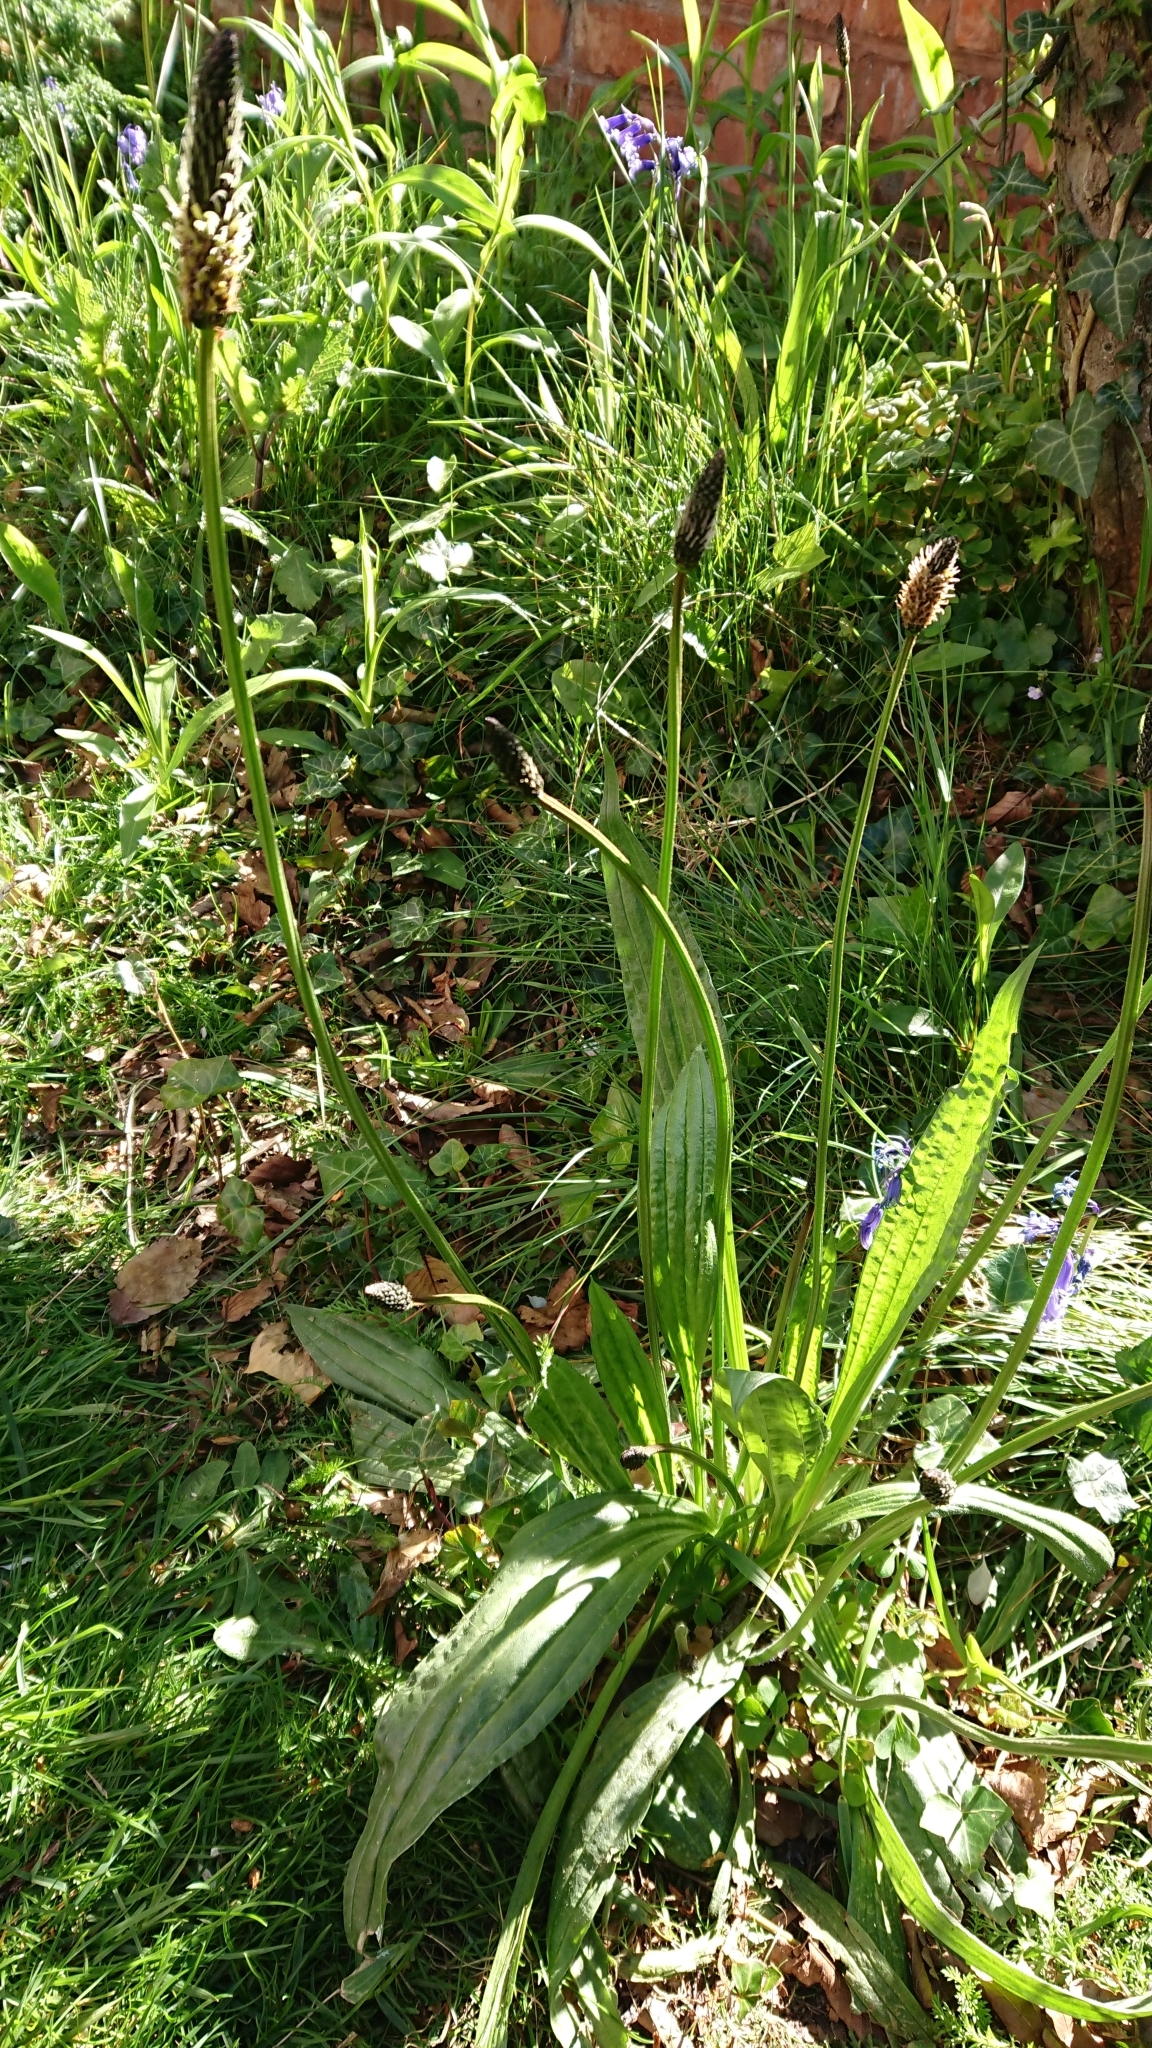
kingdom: Plantae
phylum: Tracheophyta
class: Magnoliopsida
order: Lamiales
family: Plantaginaceae
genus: Plantago
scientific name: Plantago lanceolata
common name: Ribwort plantain
